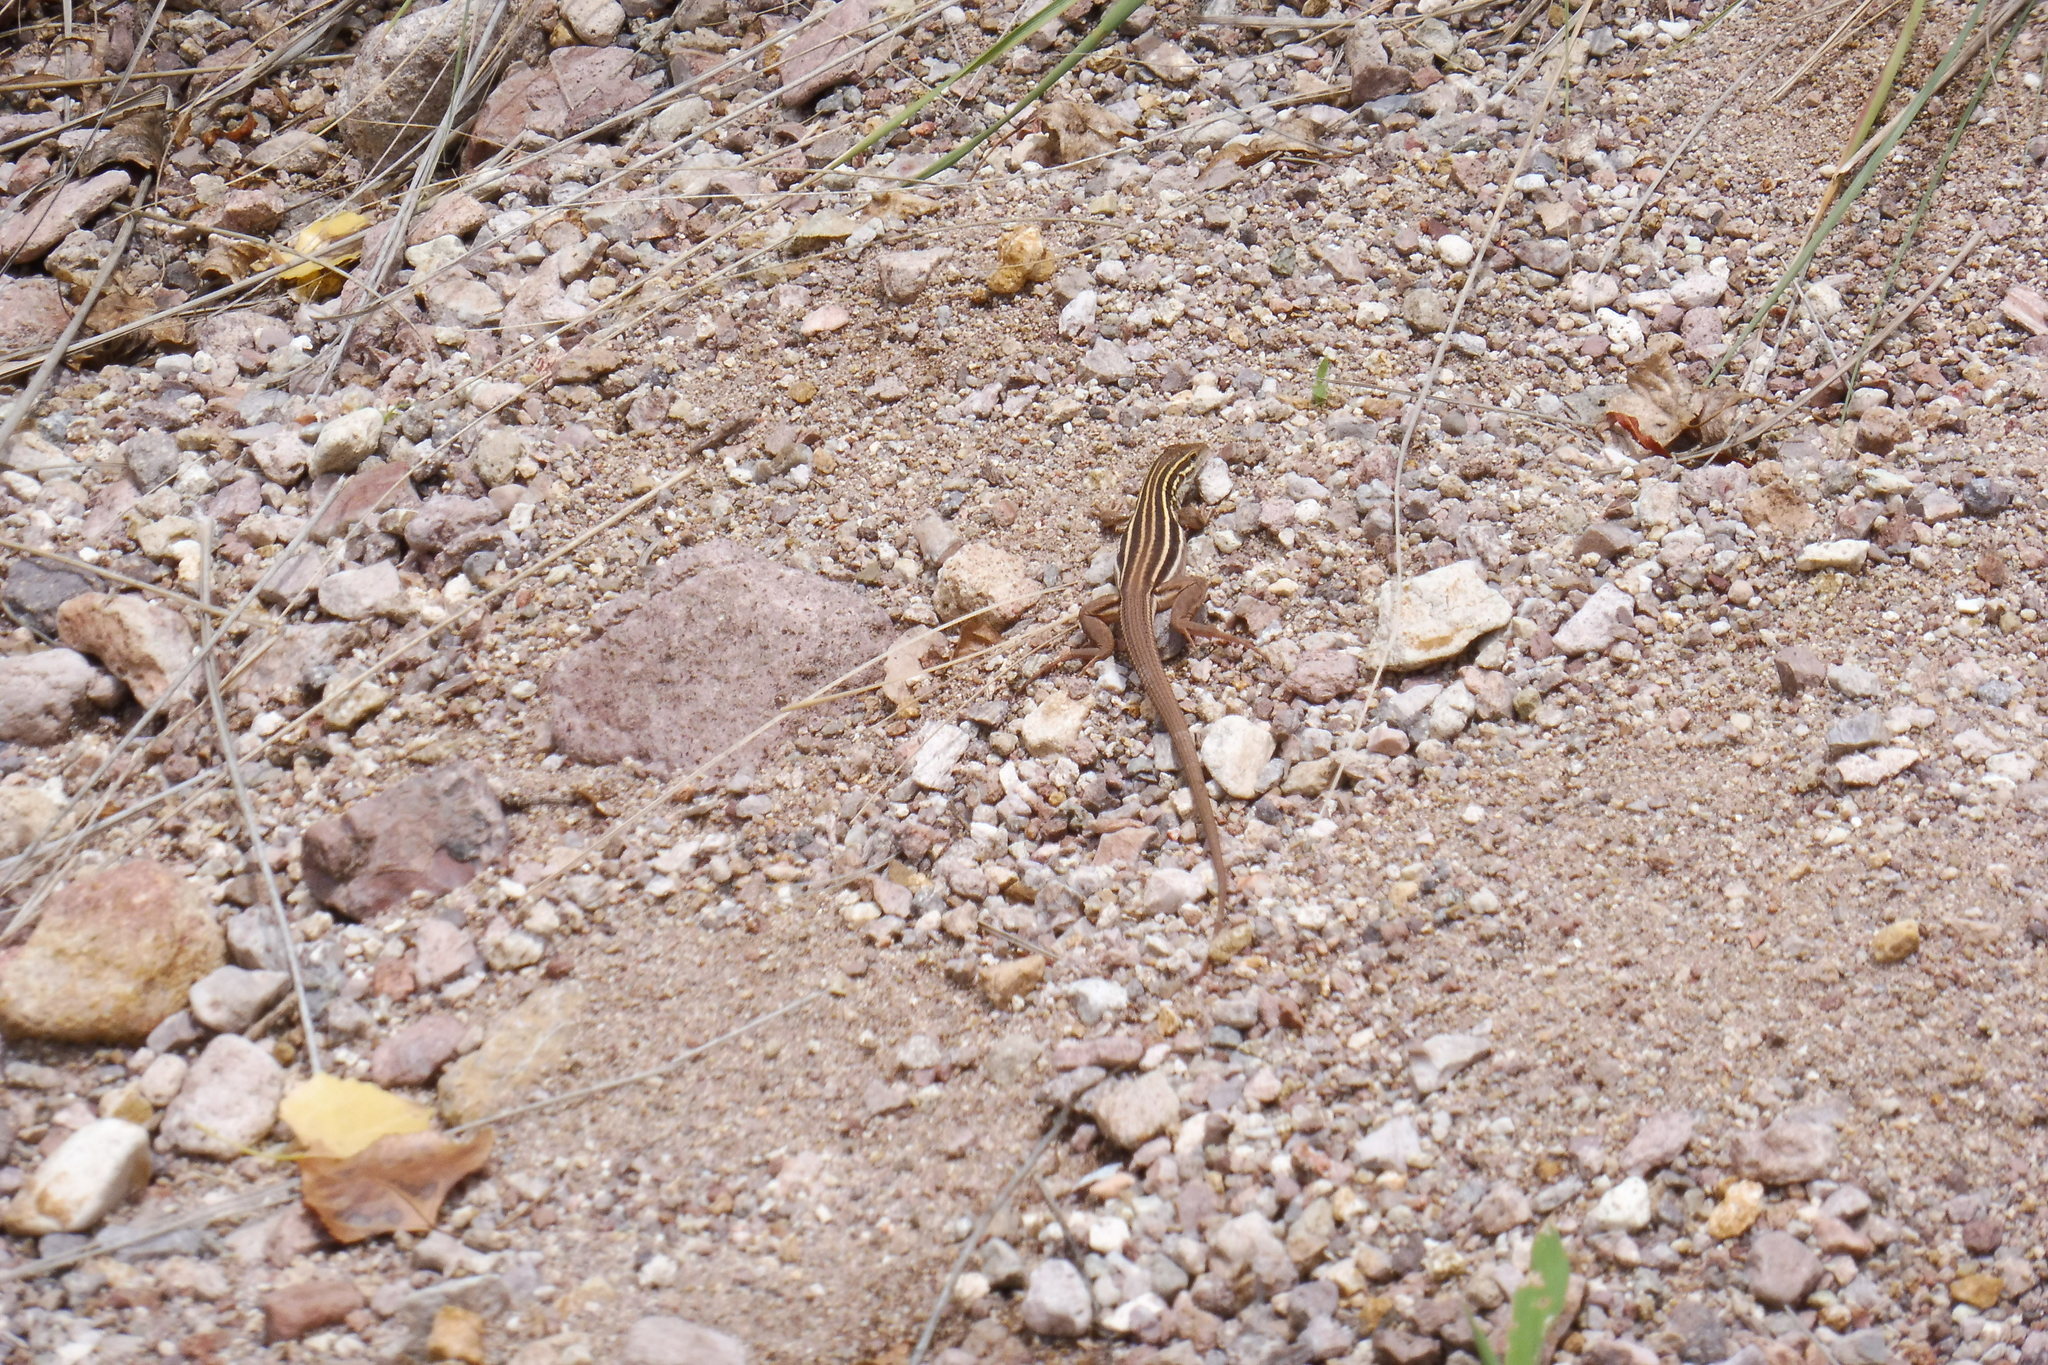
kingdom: Animalia
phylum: Chordata
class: Squamata
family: Teiidae
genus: Aspidoscelis
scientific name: Aspidoscelis uniparens
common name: Desert grassland whiptail
